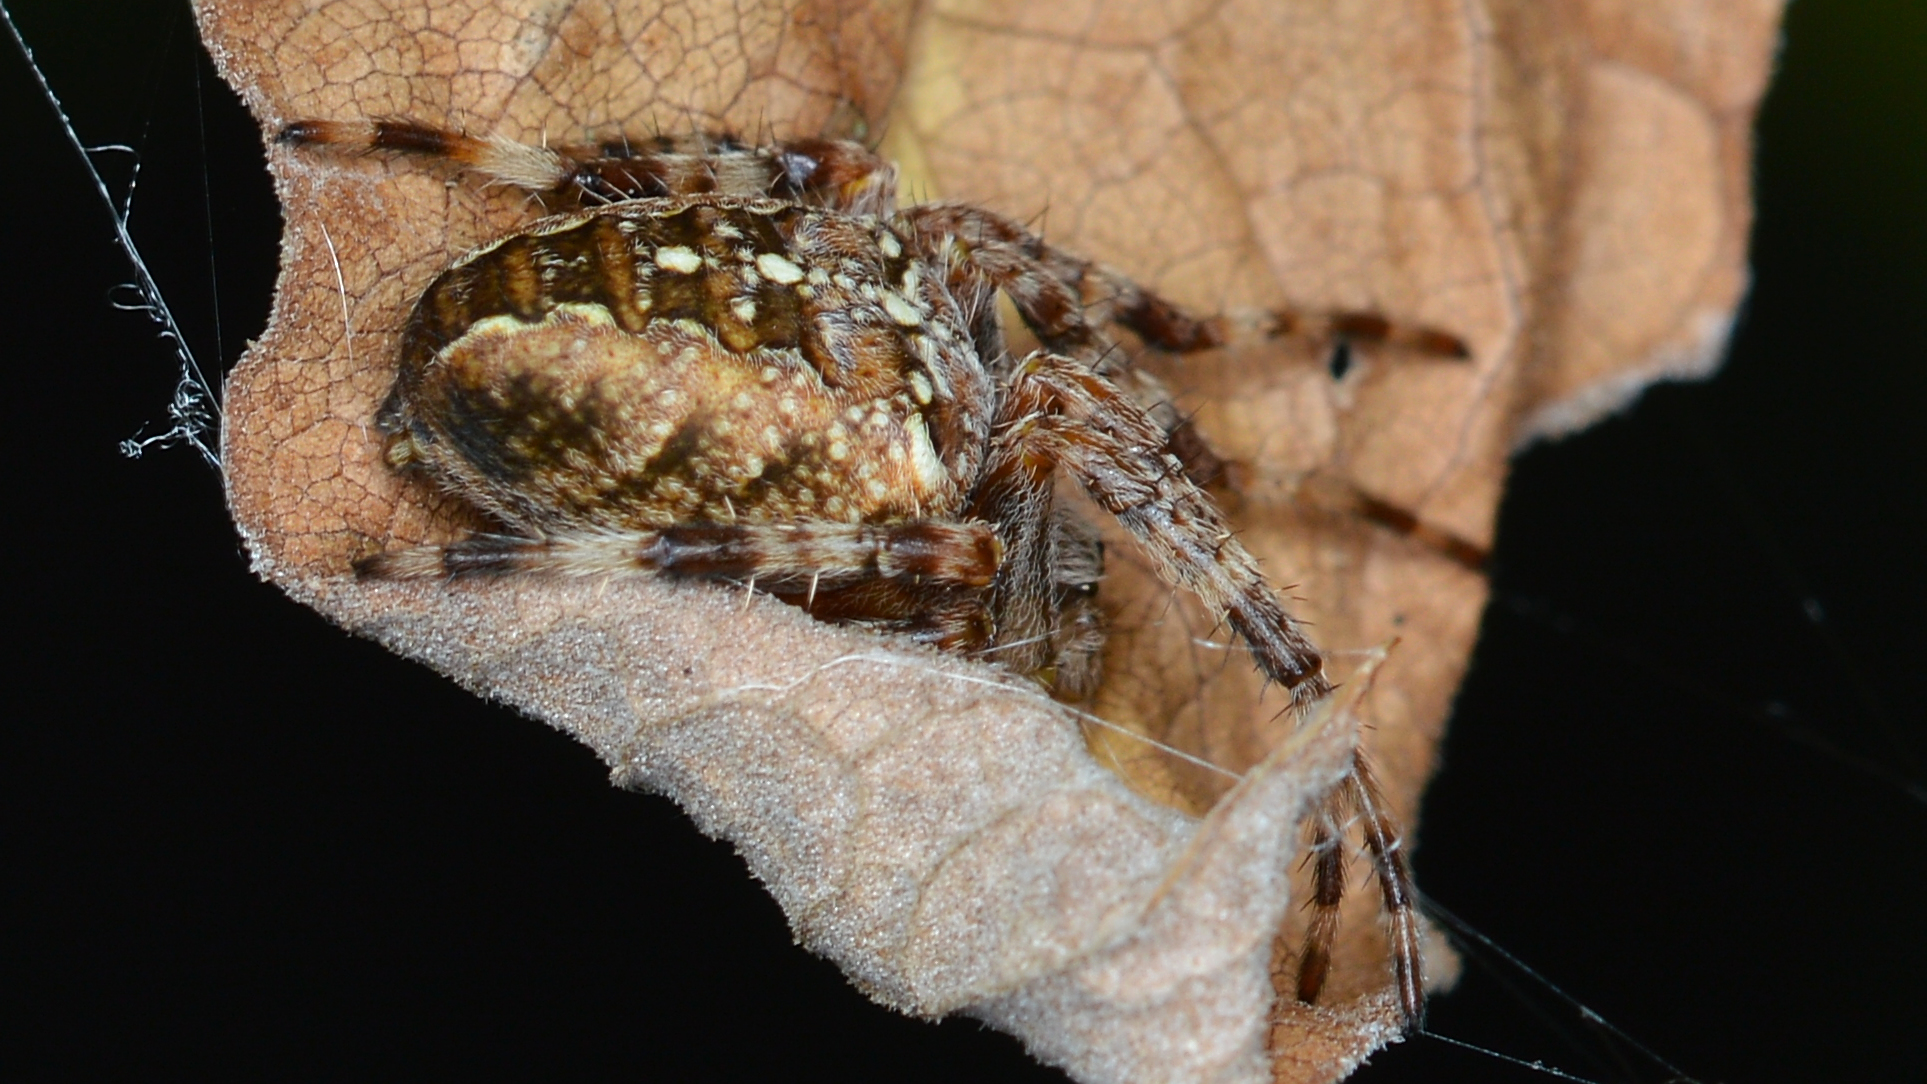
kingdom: Animalia
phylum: Arthropoda
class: Arachnida
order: Araneae
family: Araneidae
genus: Araneus
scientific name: Araneus diadematus
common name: Cross orbweaver
